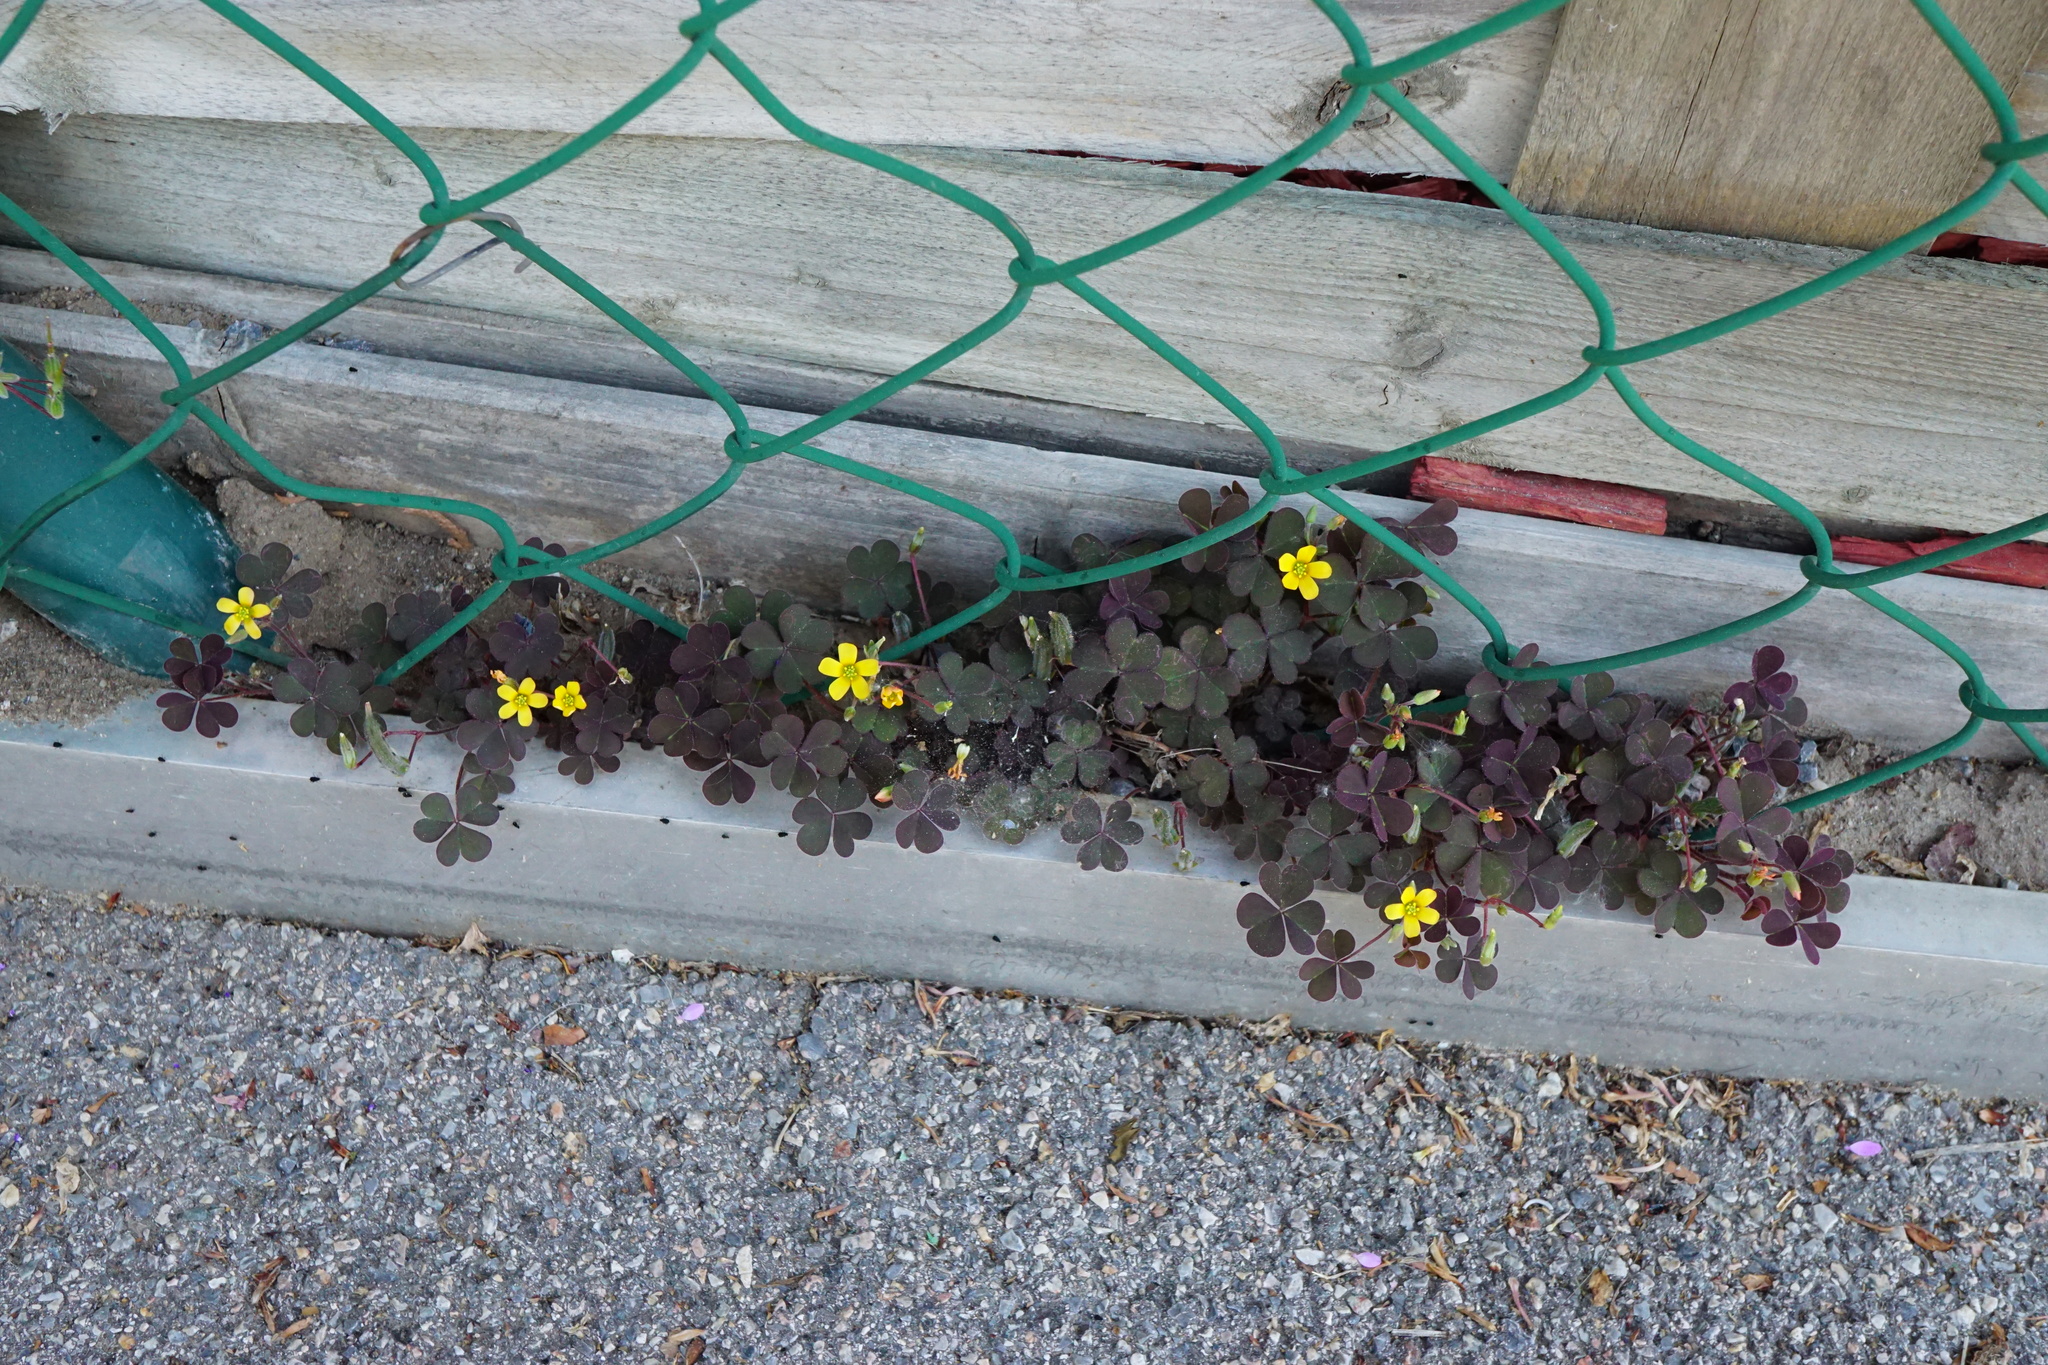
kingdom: Plantae
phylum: Tracheophyta
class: Magnoliopsida
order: Oxalidales
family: Oxalidaceae
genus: Oxalis
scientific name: Oxalis corniculata
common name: Procumbent yellow-sorrel
